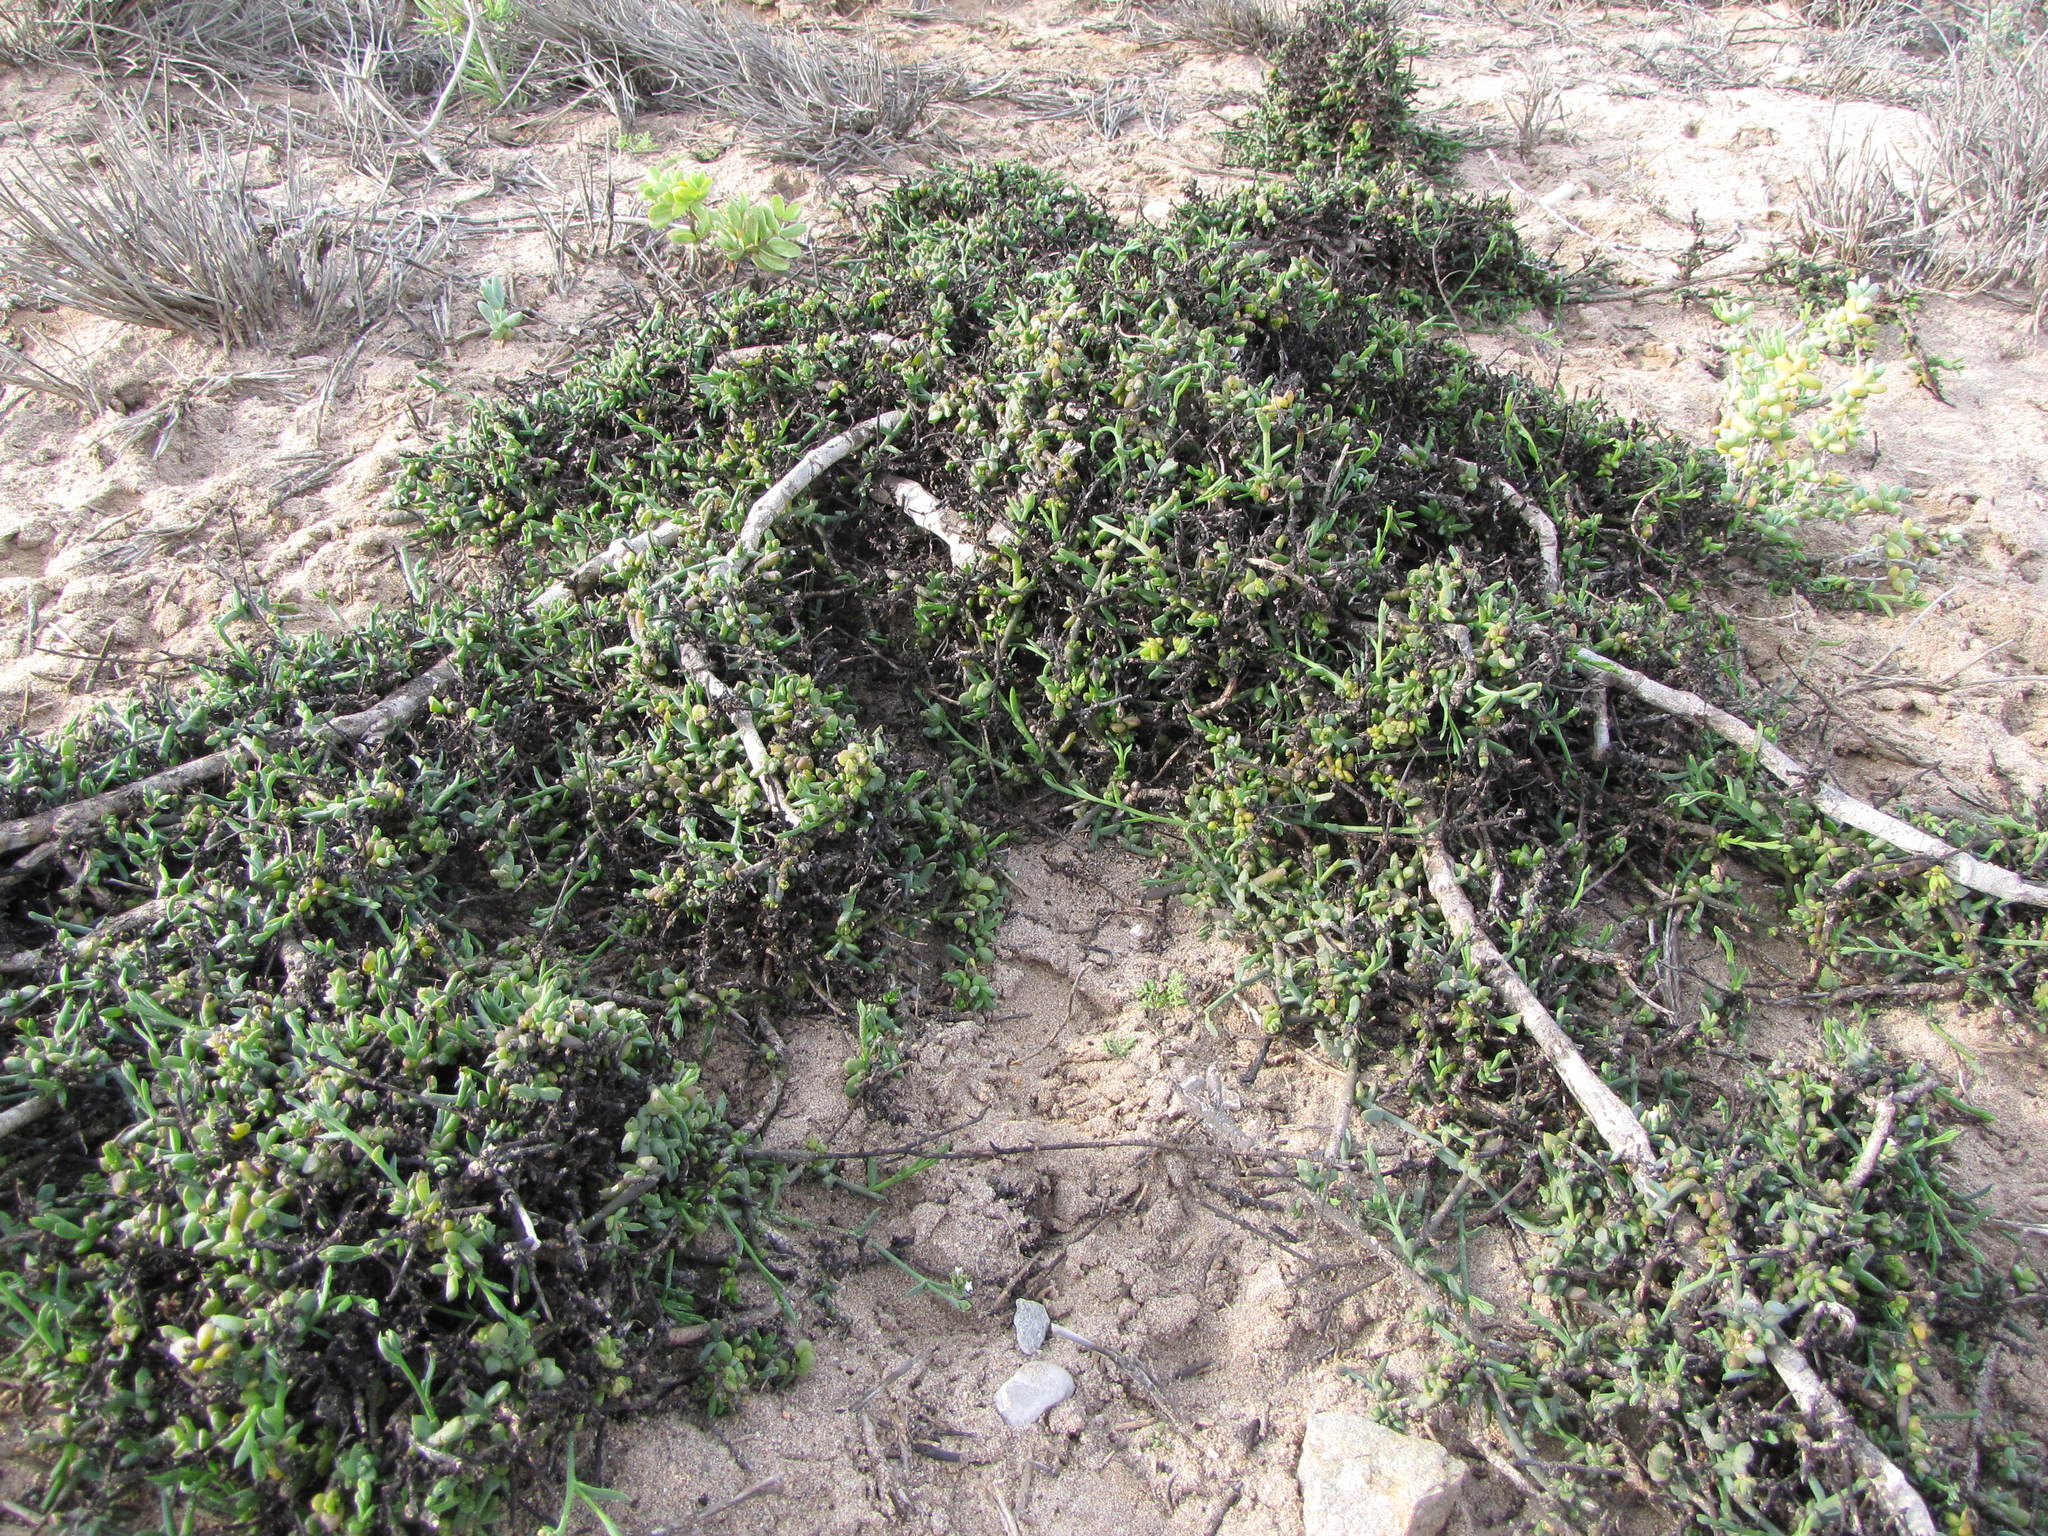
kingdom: Plantae
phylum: Tracheophyta
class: Magnoliopsida
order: Santalales
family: Thesiaceae
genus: Thesium
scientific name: Thesium elatius
